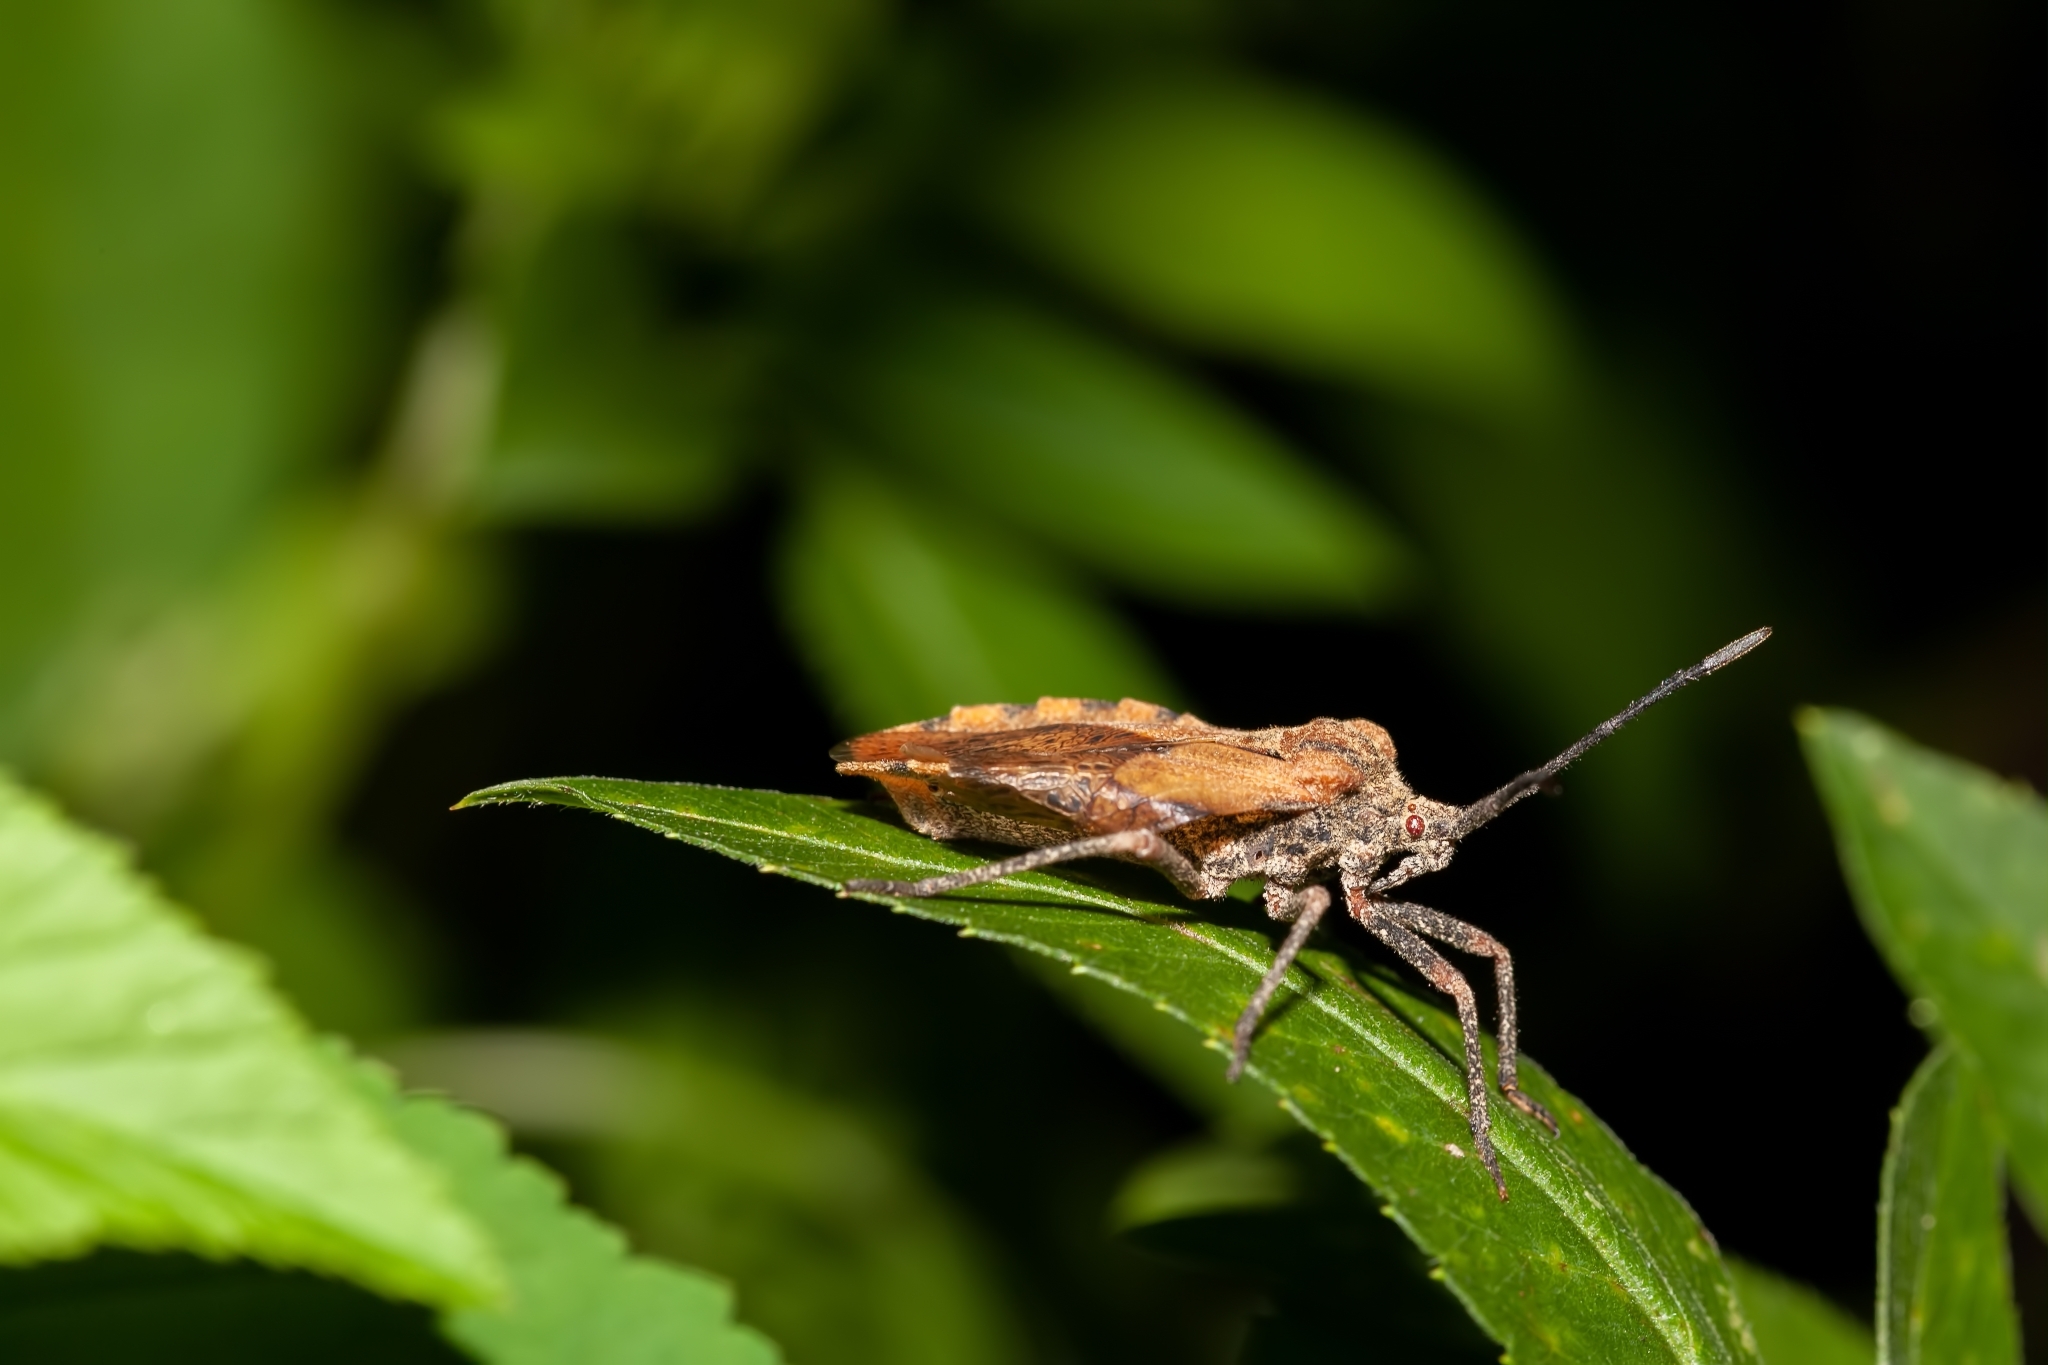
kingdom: Animalia
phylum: Arthropoda
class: Insecta
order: Hemiptera
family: Coreidae
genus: Spartocera
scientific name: Spartocera fusca
